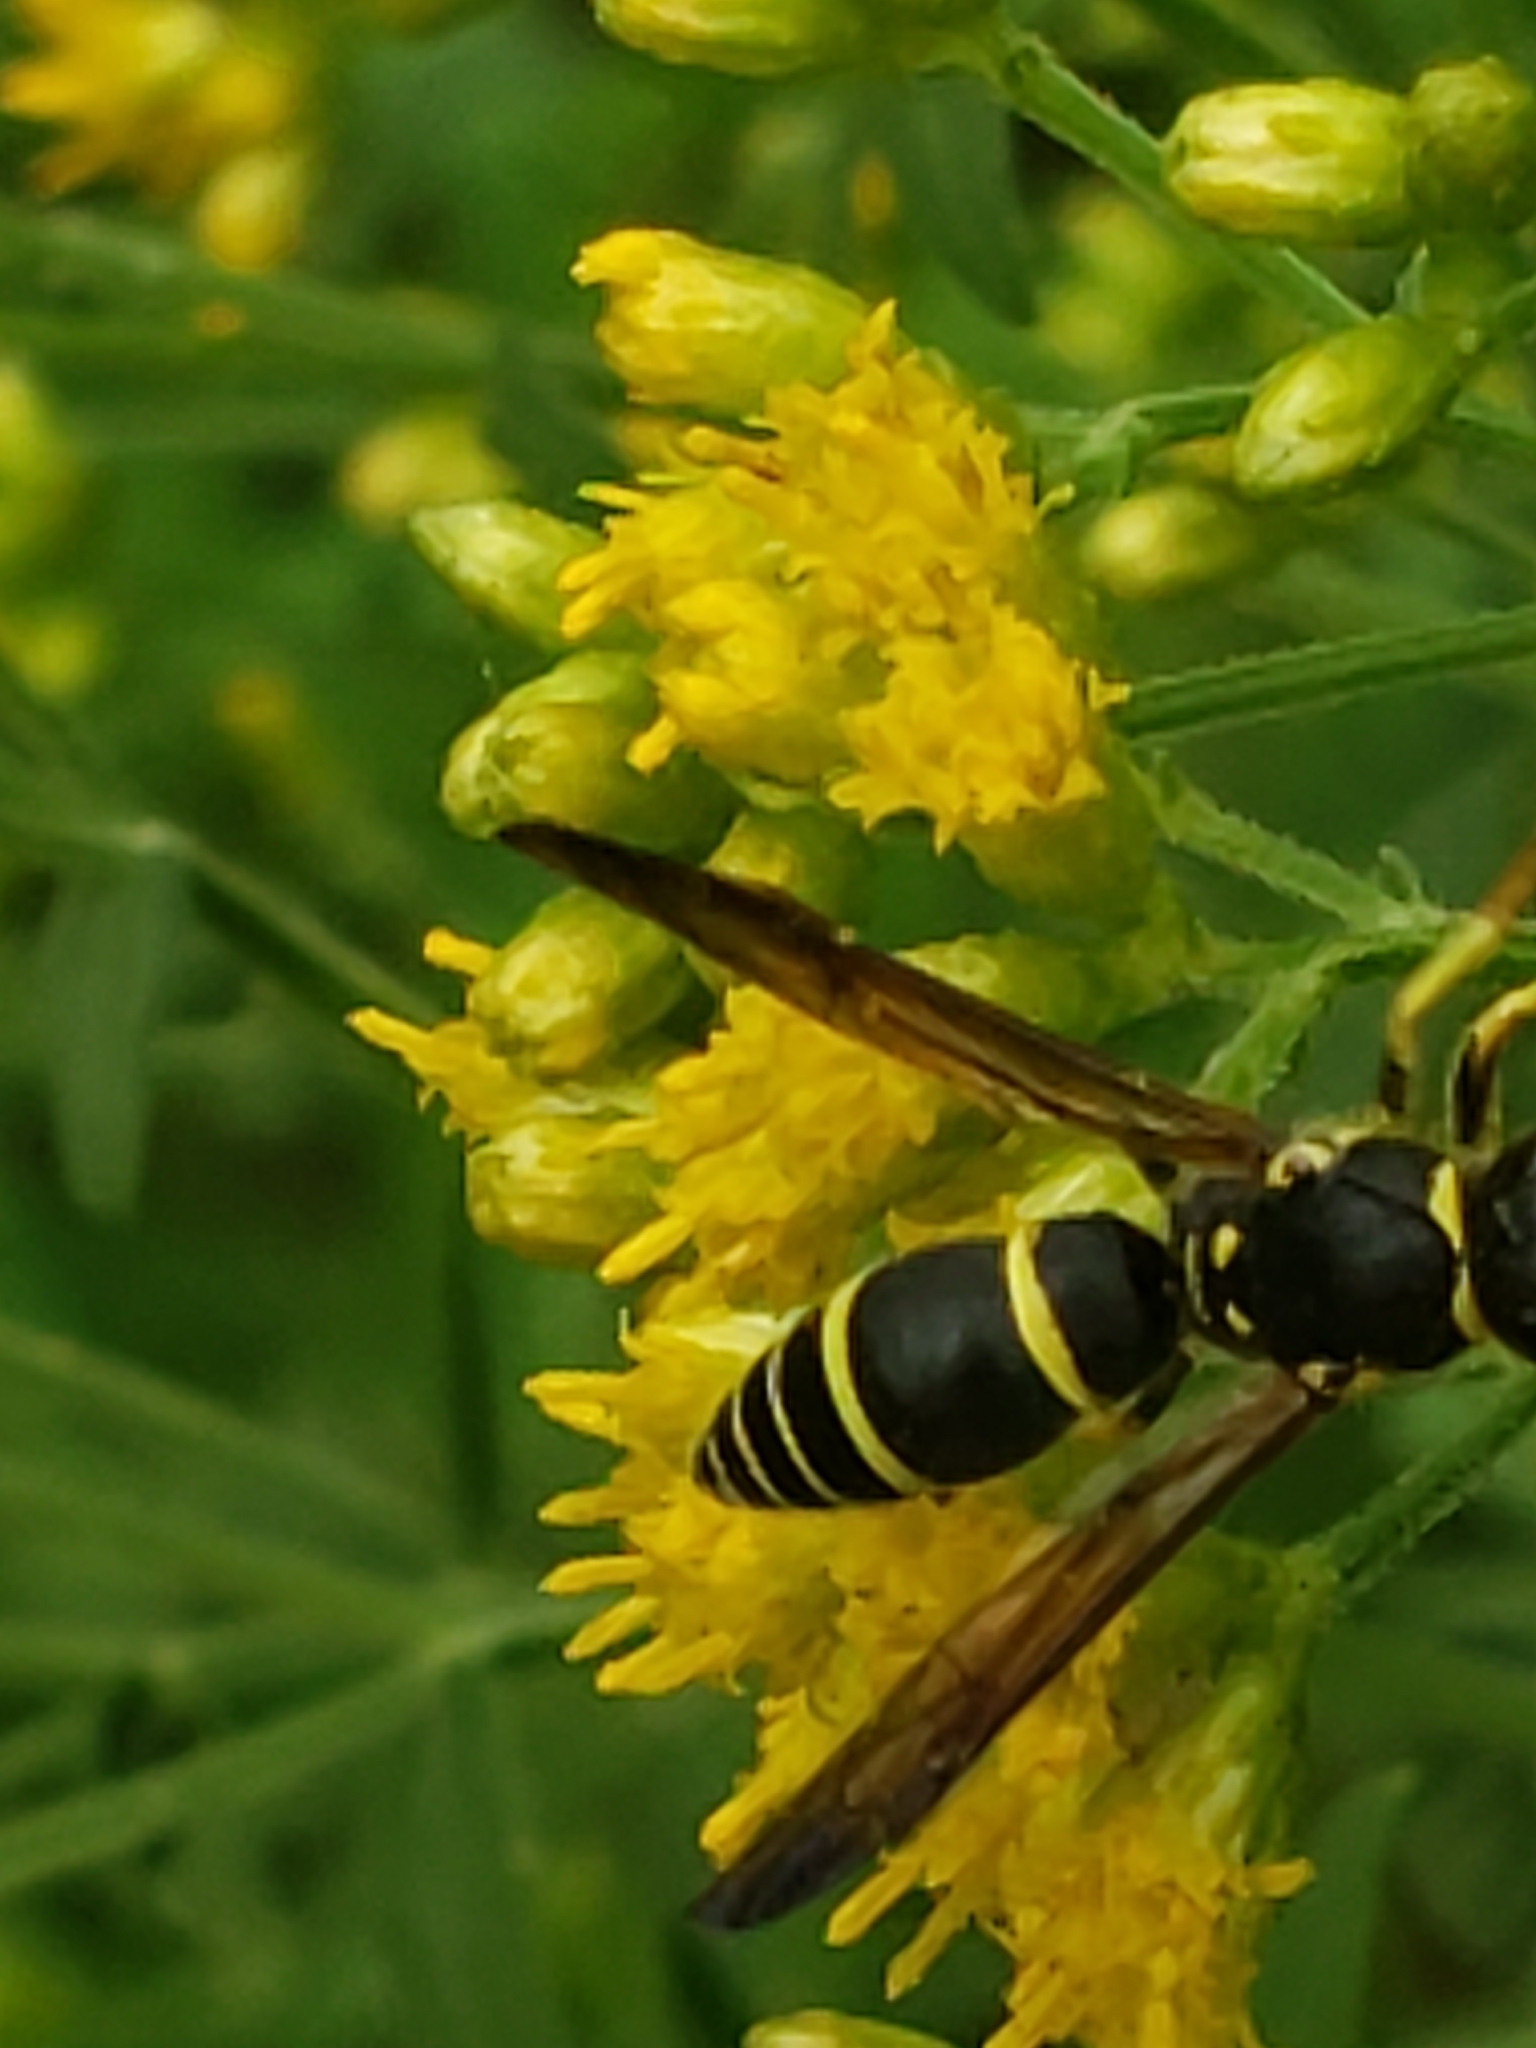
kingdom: Animalia
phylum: Arthropoda
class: Insecta
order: Hymenoptera
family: Vespidae
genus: Ancistrocerus
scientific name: Ancistrocerus adiabatus
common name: Bramble mason wasp
